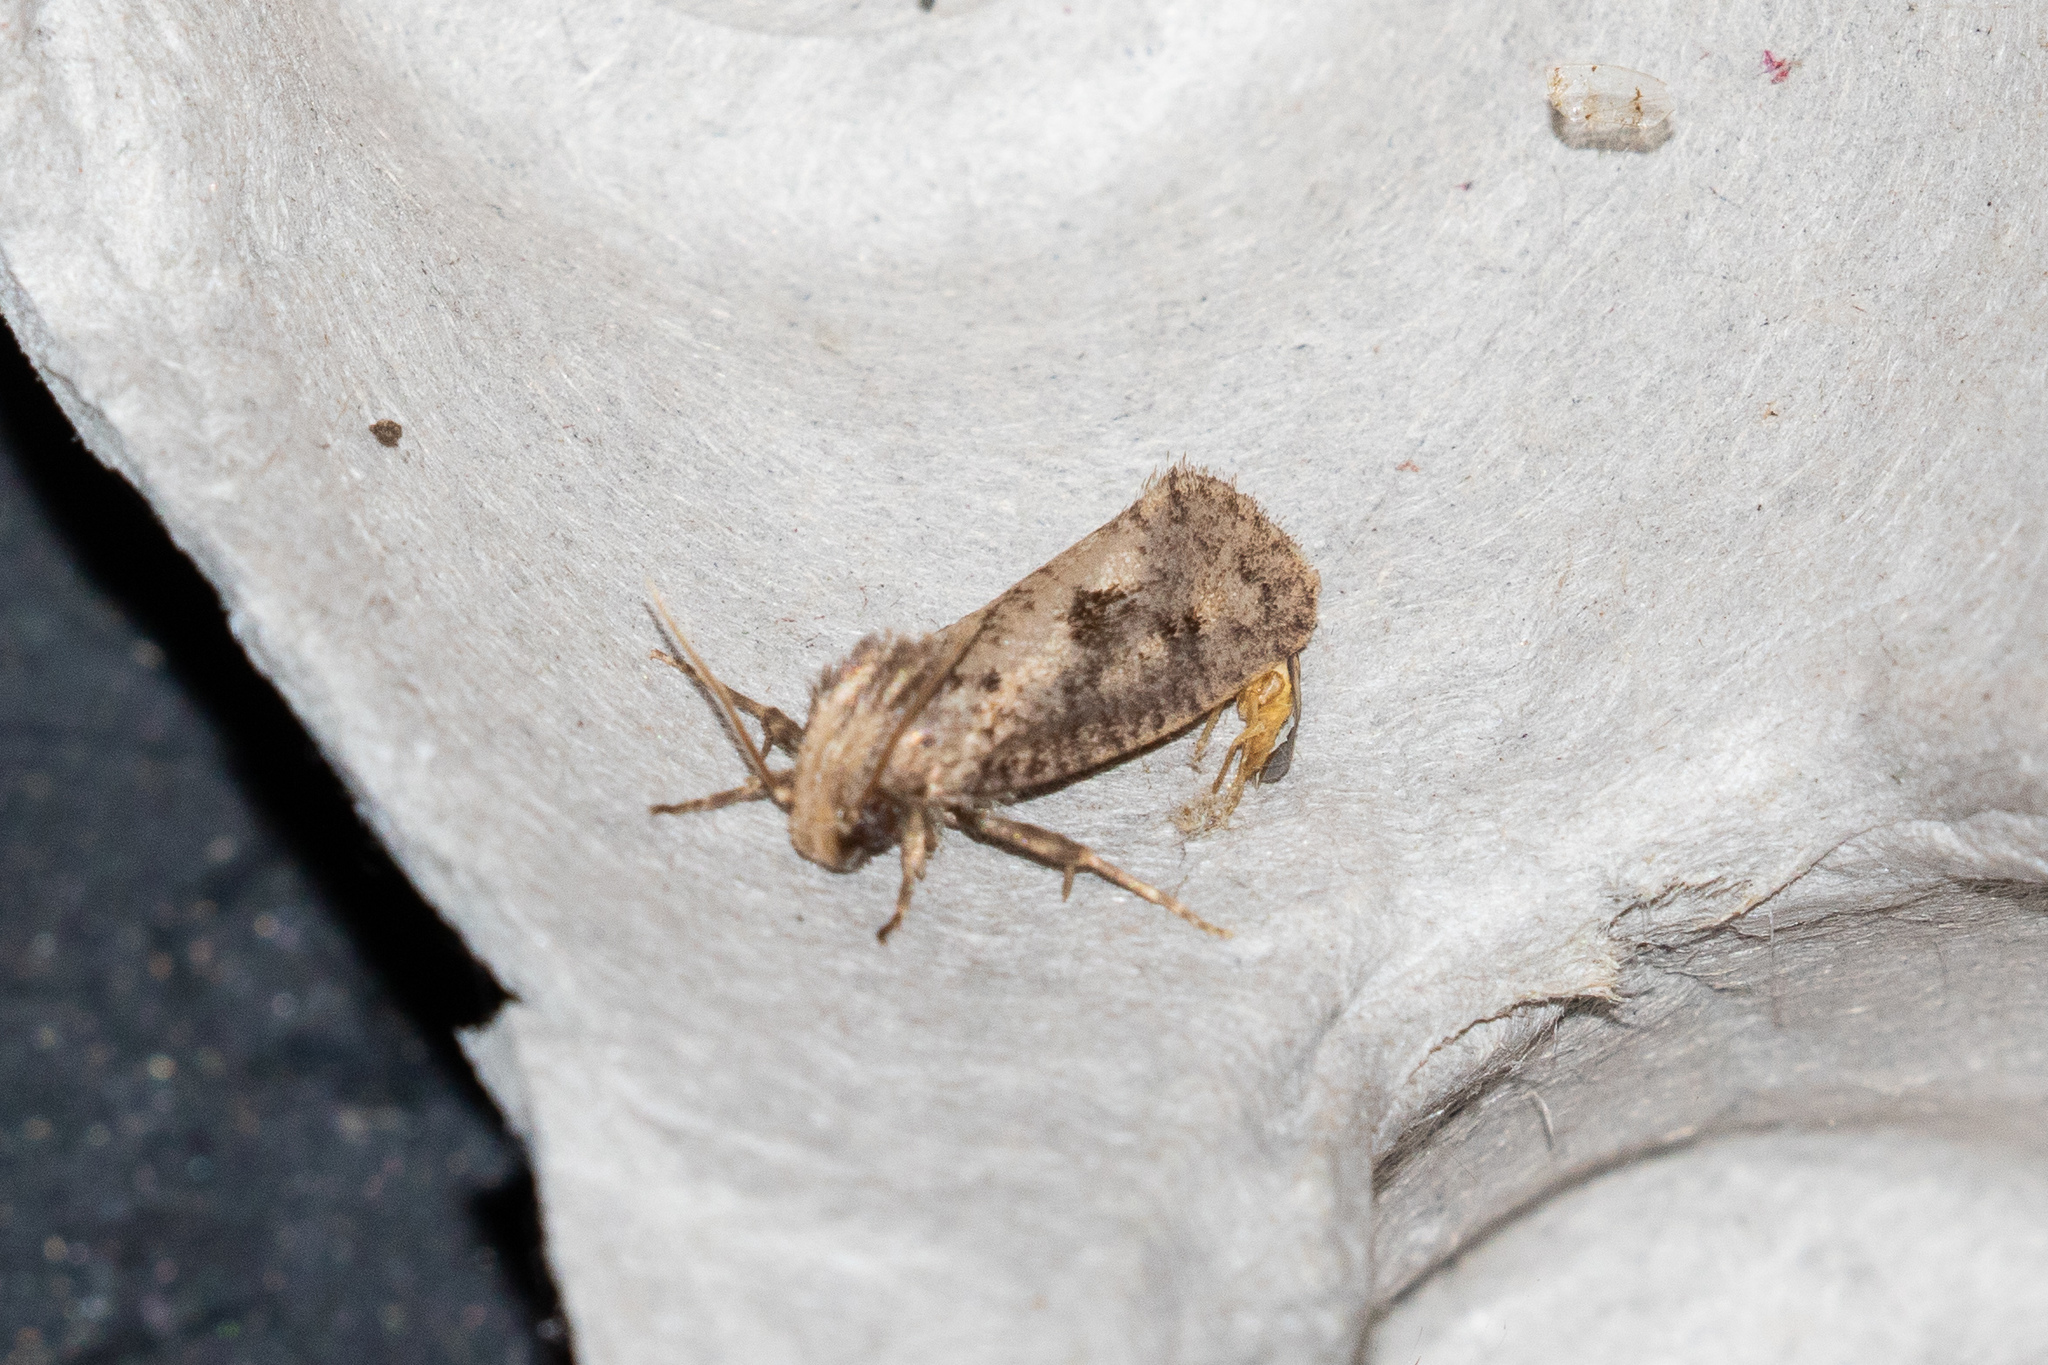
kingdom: Animalia
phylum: Arthropoda
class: Insecta
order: Lepidoptera
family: Tineidae
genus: Acrolophus
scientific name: Acrolophus popeanella
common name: Clemens' grass tubeworm moth
